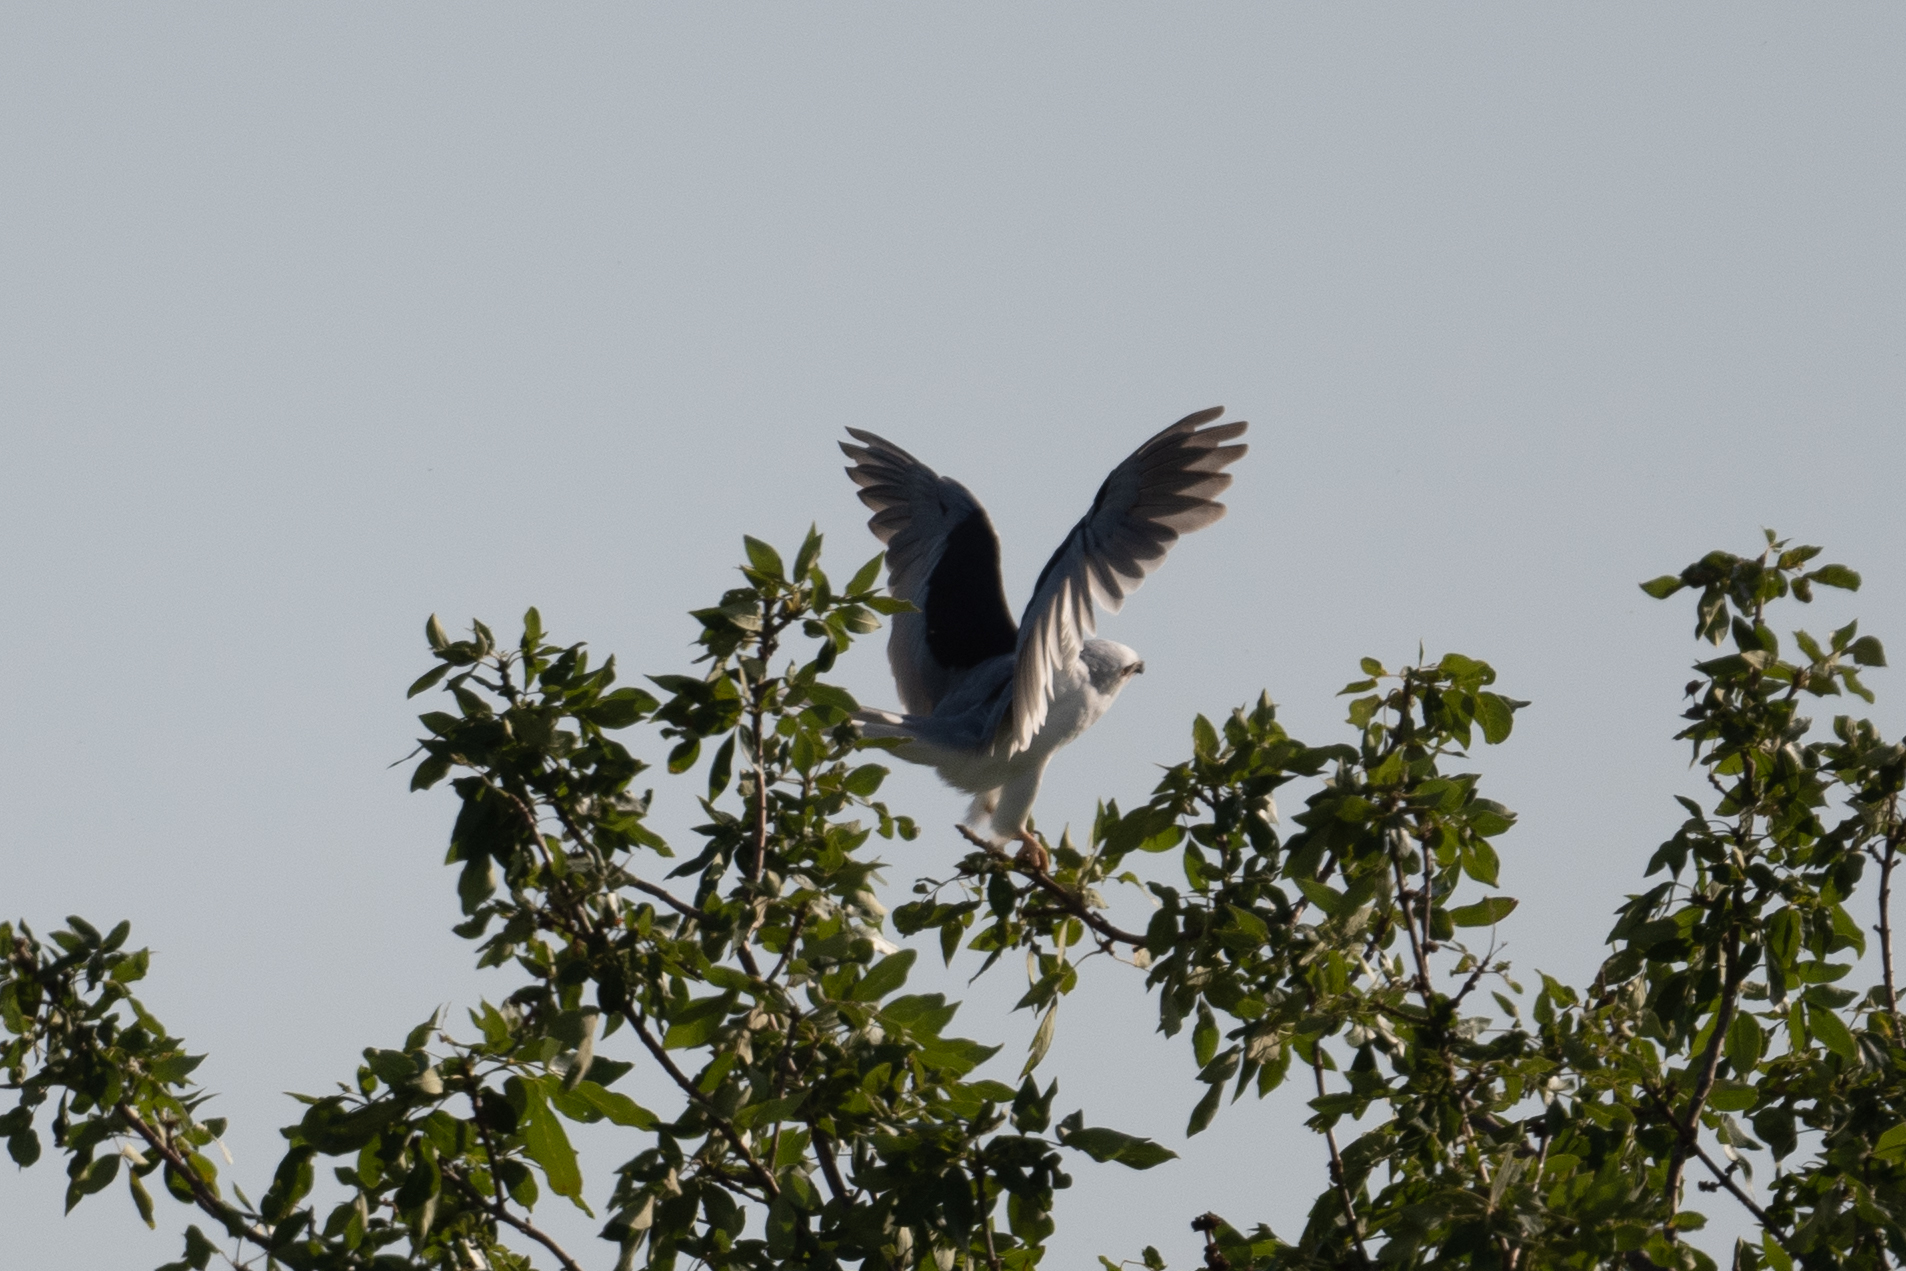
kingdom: Animalia
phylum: Chordata
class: Aves
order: Accipitriformes
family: Accipitridae
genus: Elanus
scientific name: Elanus leucurus
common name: White-tailed kite
